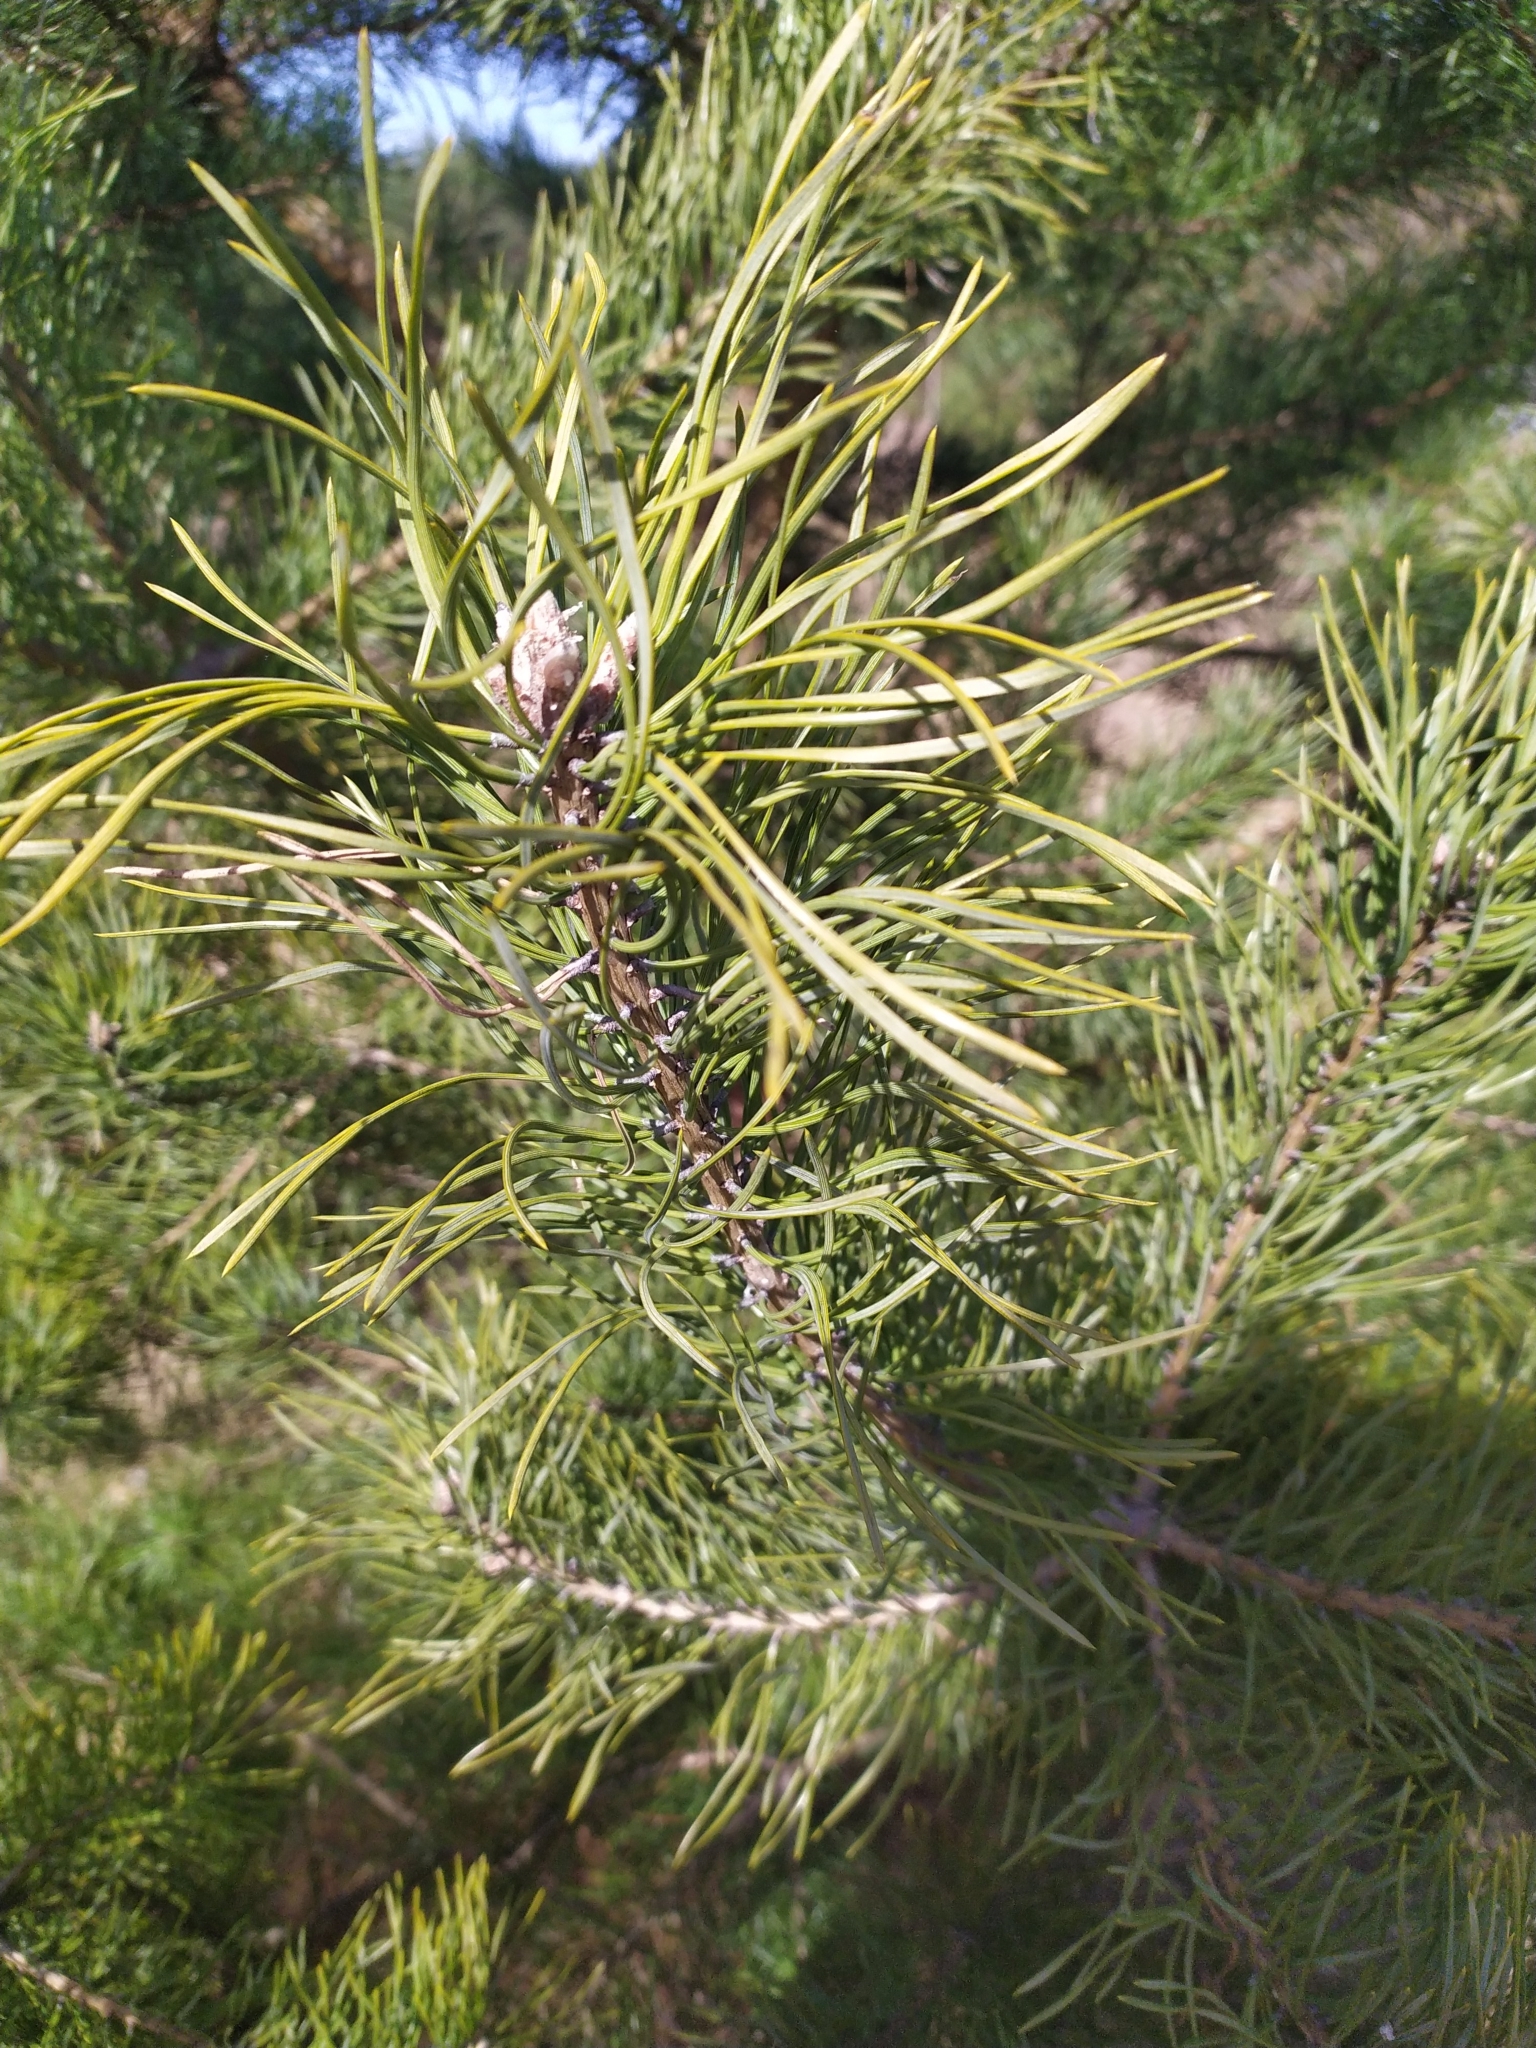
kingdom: Plantae
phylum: Tracheophyta
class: Pinopsida
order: Pinales
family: Pinaceae
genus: Pinus
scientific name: Pinus sylvestris
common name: Scots pine
